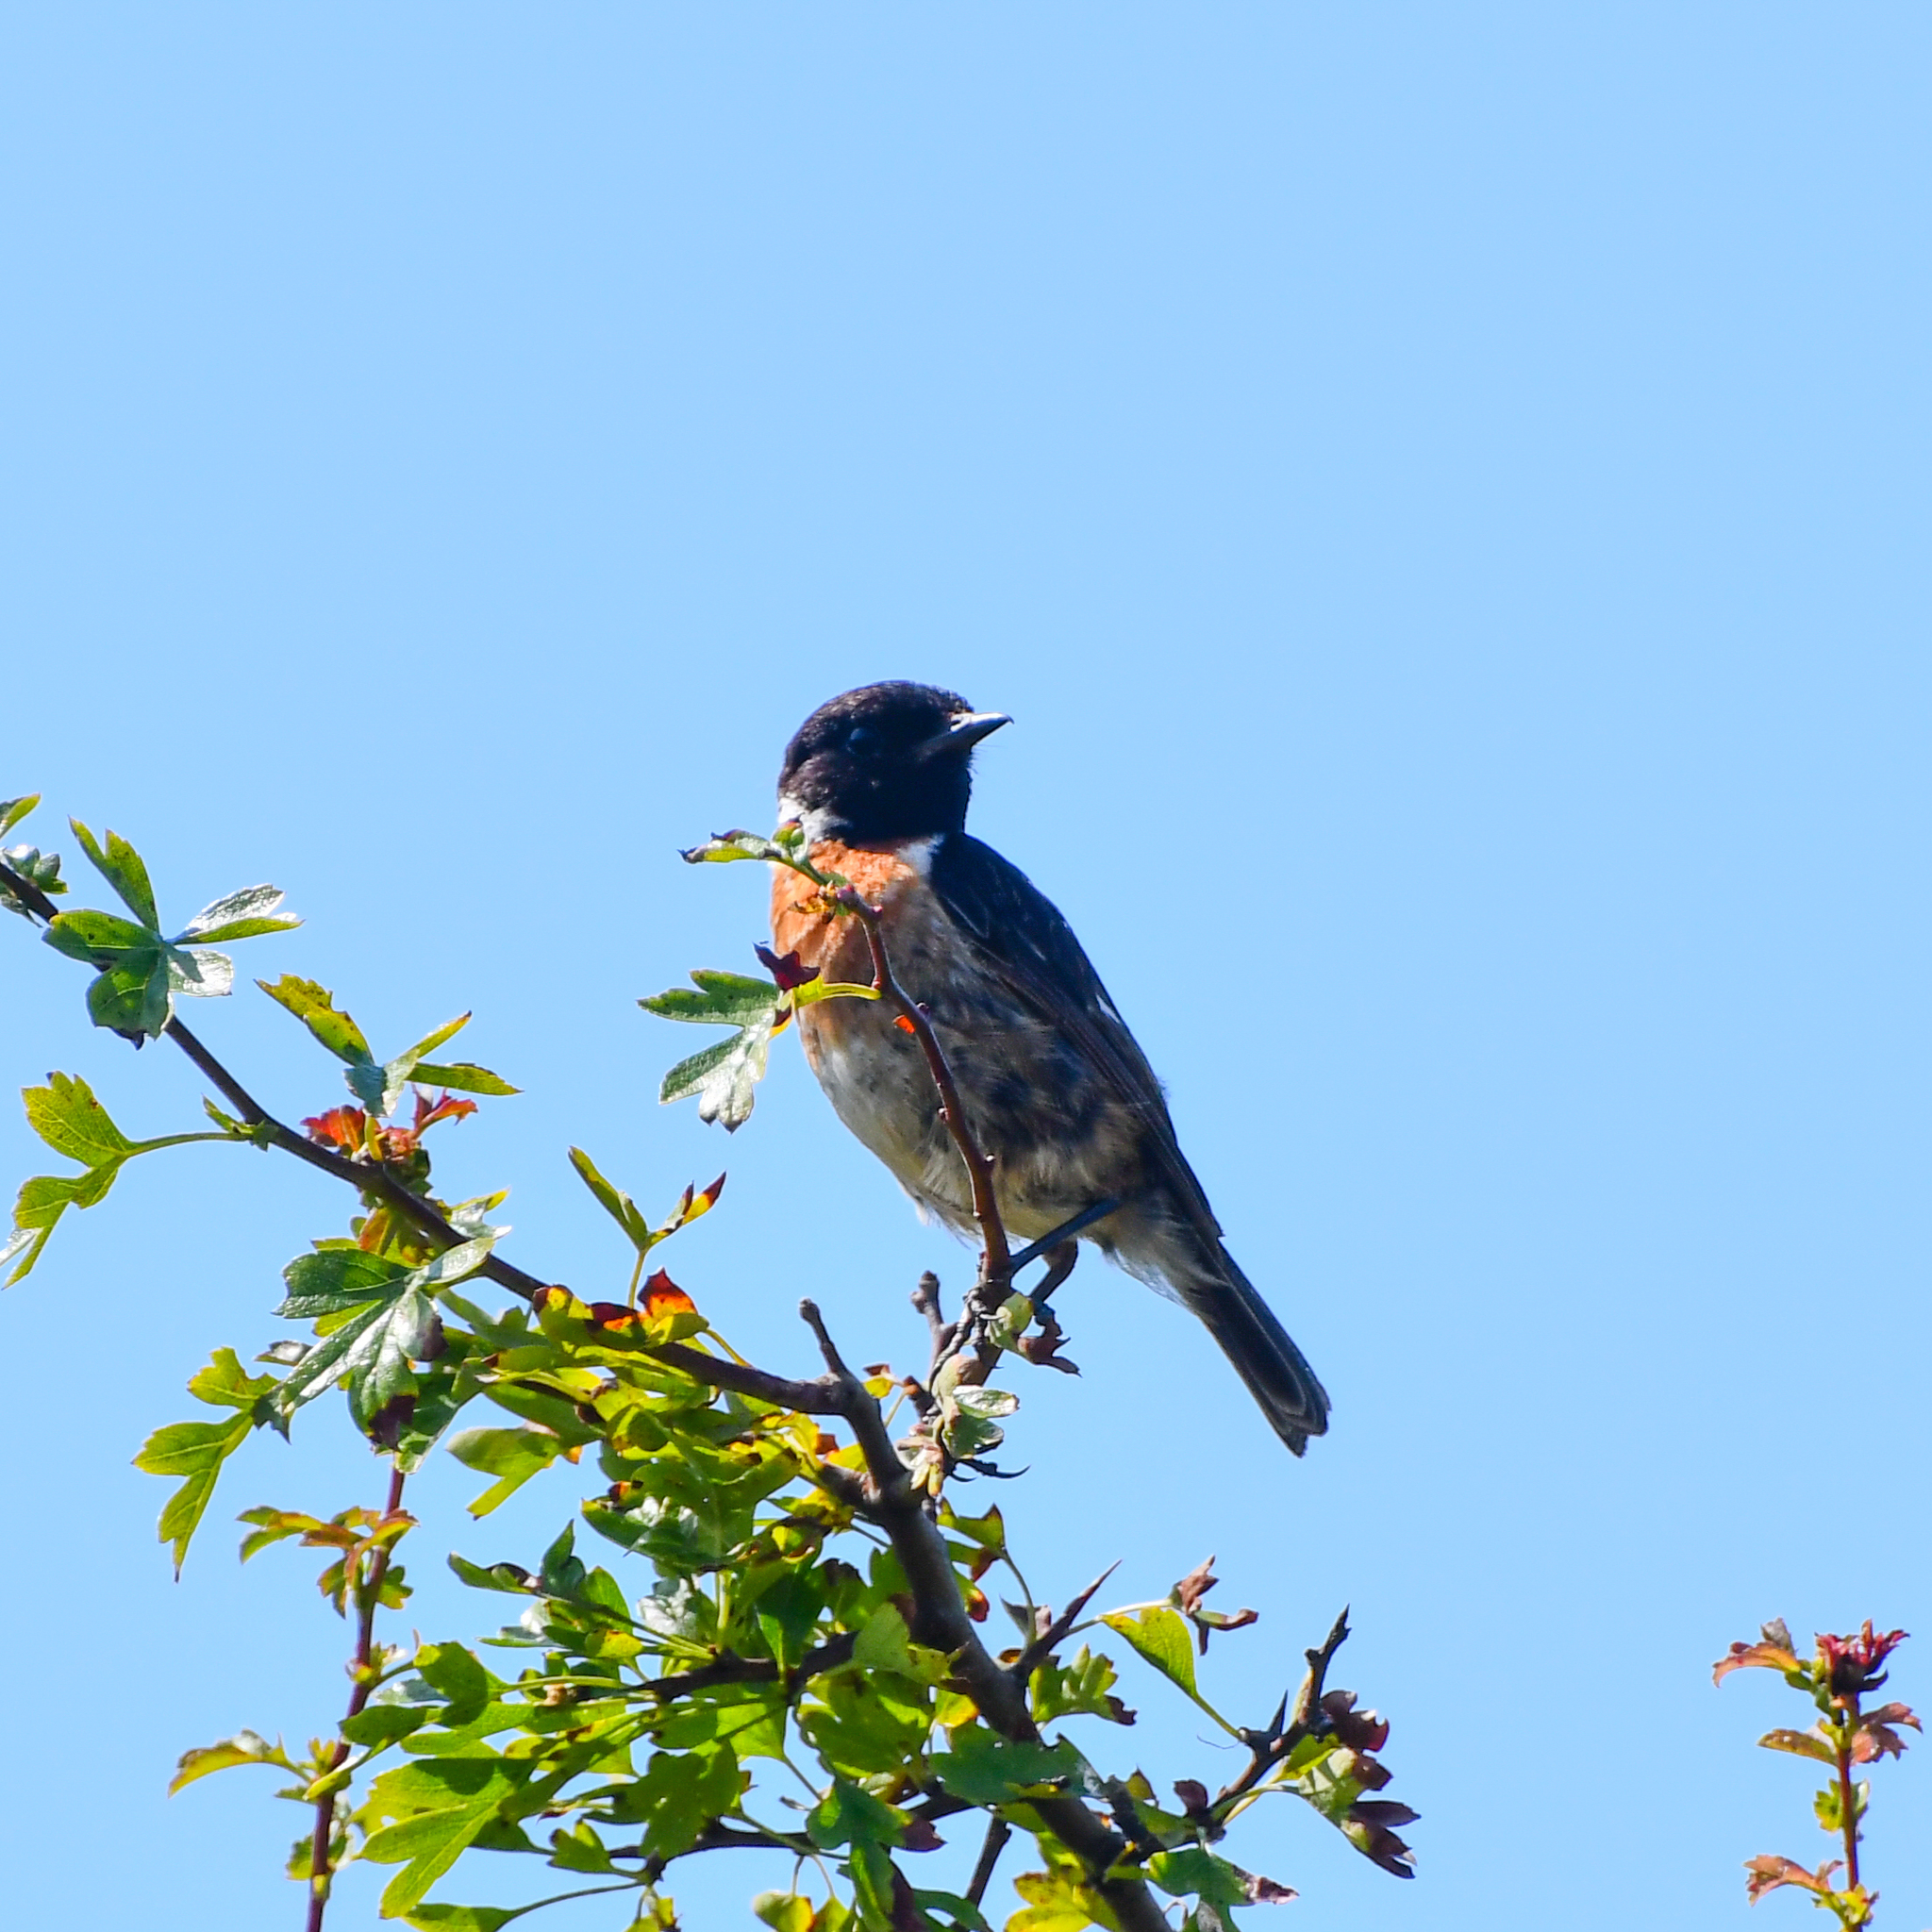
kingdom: Animalia
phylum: Chordata
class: Aves
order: Passeriformes
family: Muscicapidae
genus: Saxicola
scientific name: Saxicola rubicola
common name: European stonechat
